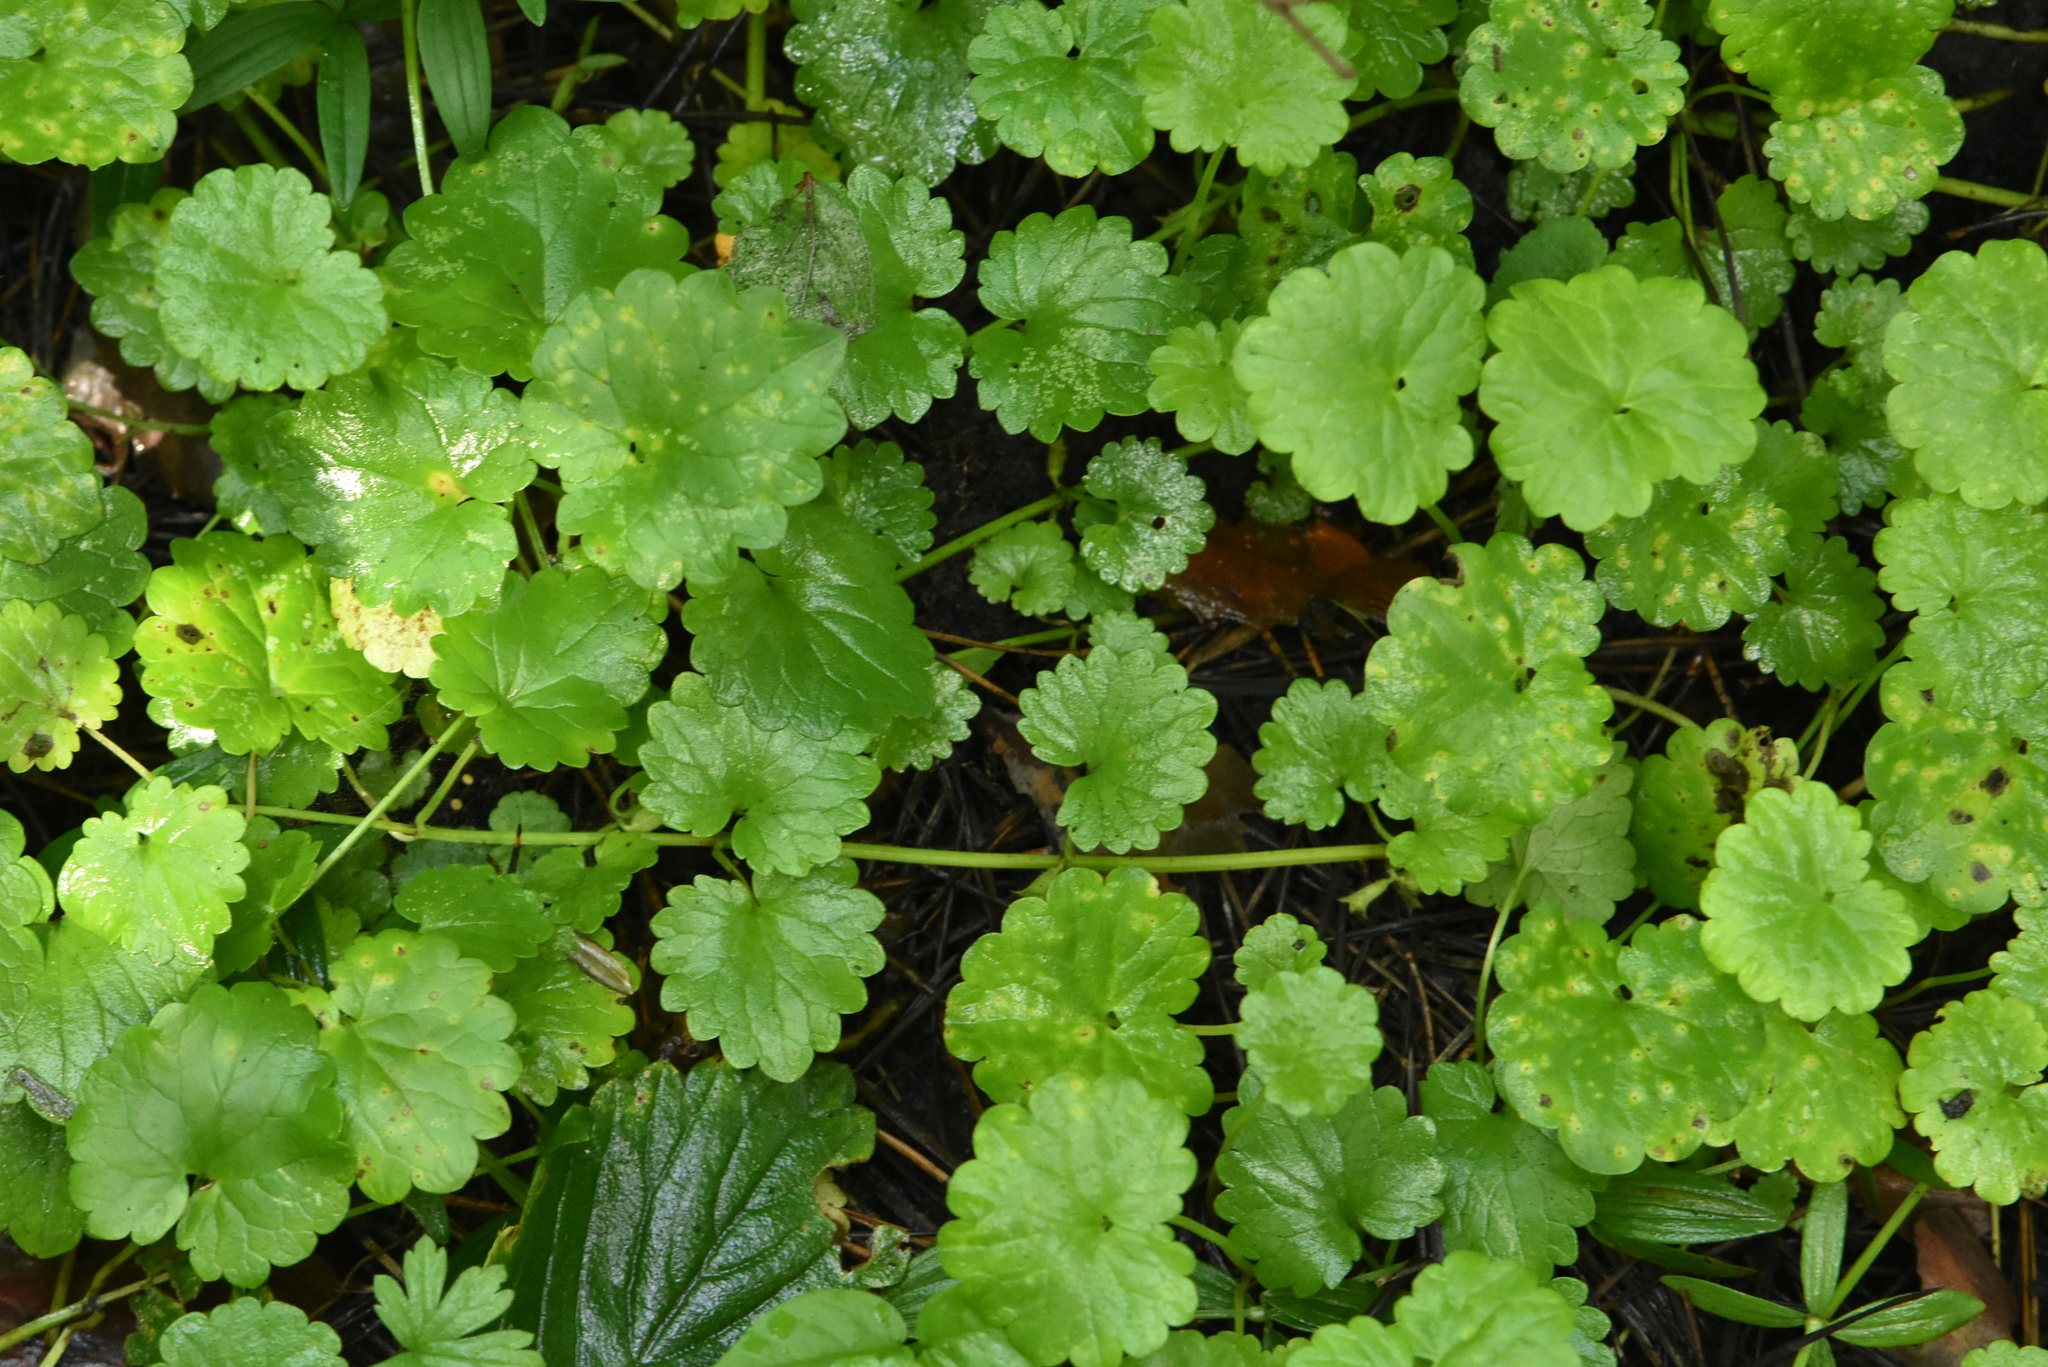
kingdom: Plantae
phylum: Tracheophyta
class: Magnoliopsida
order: Lamiales
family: Lamiaceae
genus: Glechoma
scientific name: Glechoma hederacea
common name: Ground ivy
